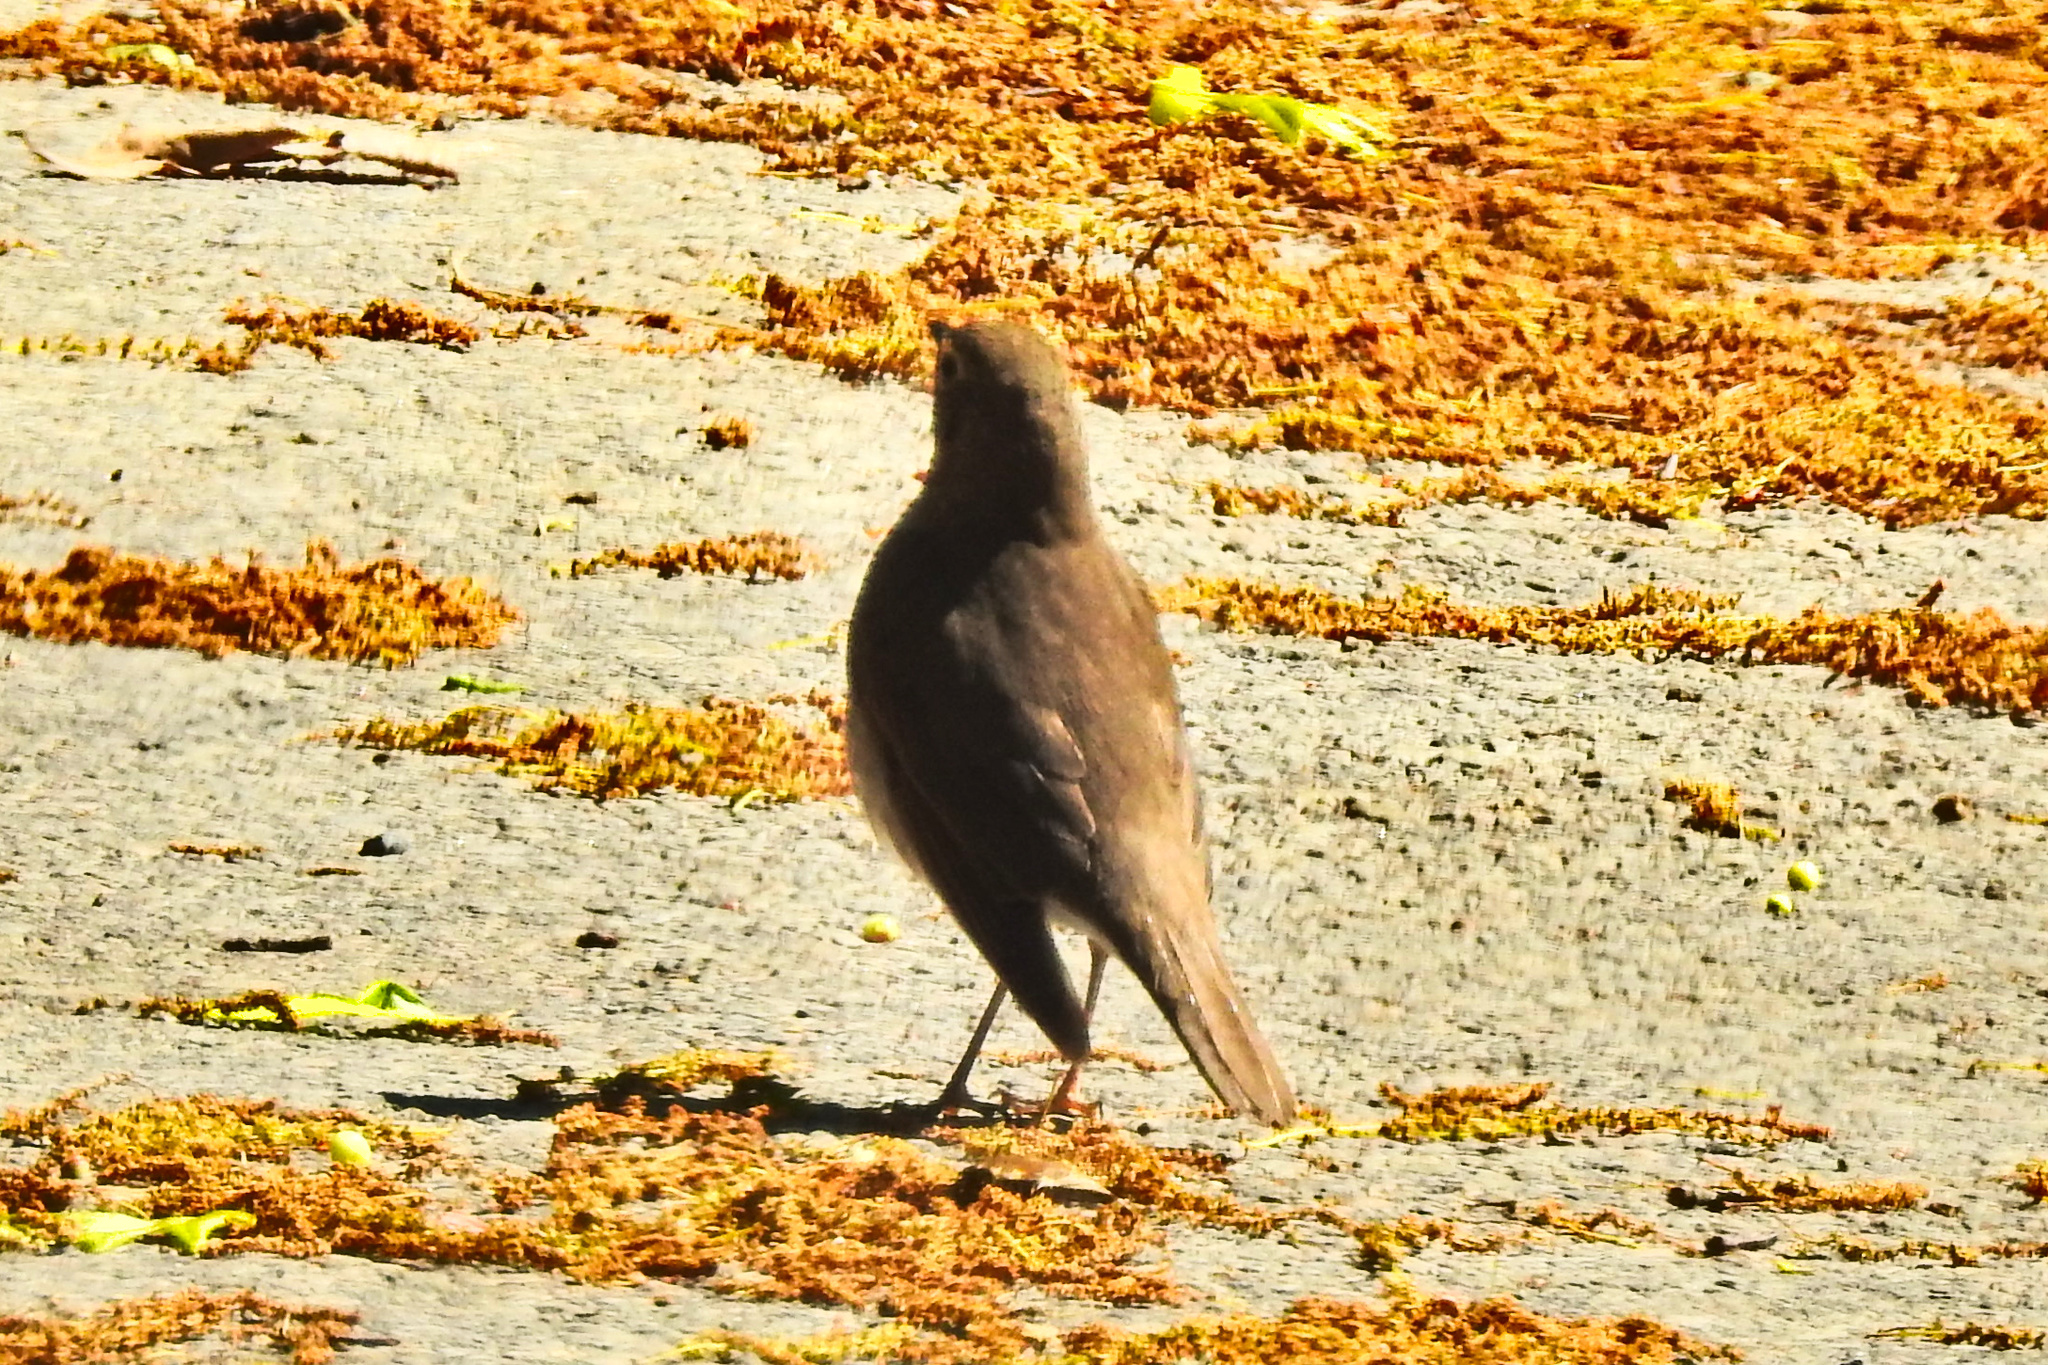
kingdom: Animalia
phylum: Chordata
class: Aves
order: Passeriformes
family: Turdidae
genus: Catharus
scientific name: Catharus ustulatus
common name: Swainson's thrush
